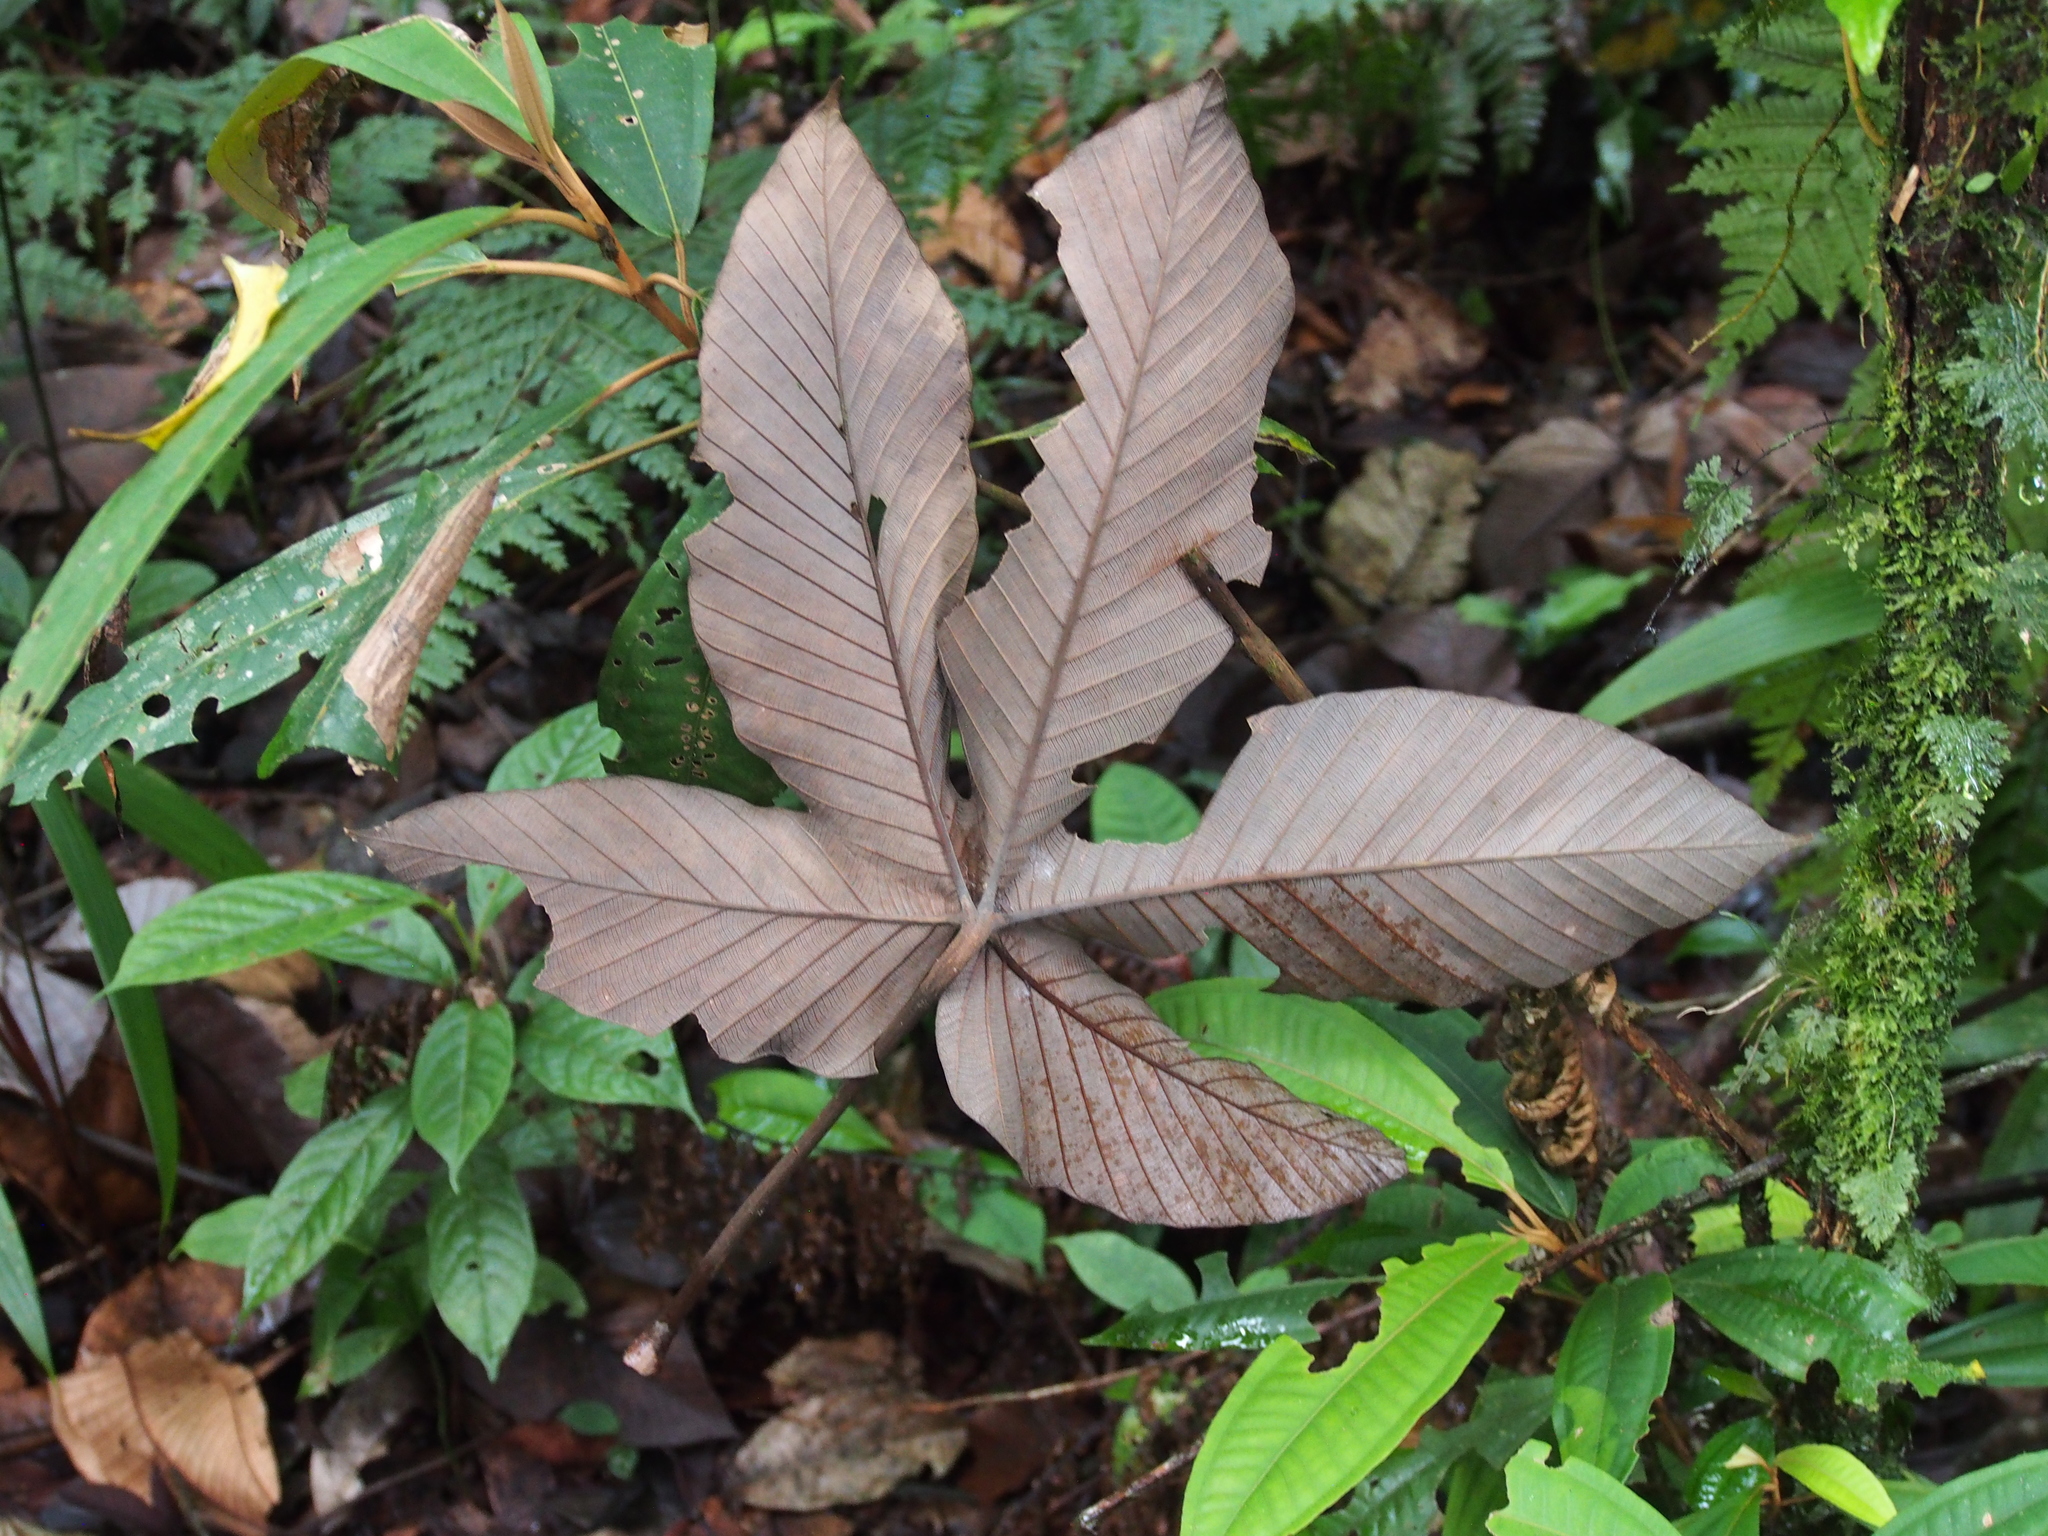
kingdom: Plantae
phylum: Tracheophyta
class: Magnoliopsida
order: Rosales
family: Urticaceae
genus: Pourouma
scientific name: Pourouma bicolor
